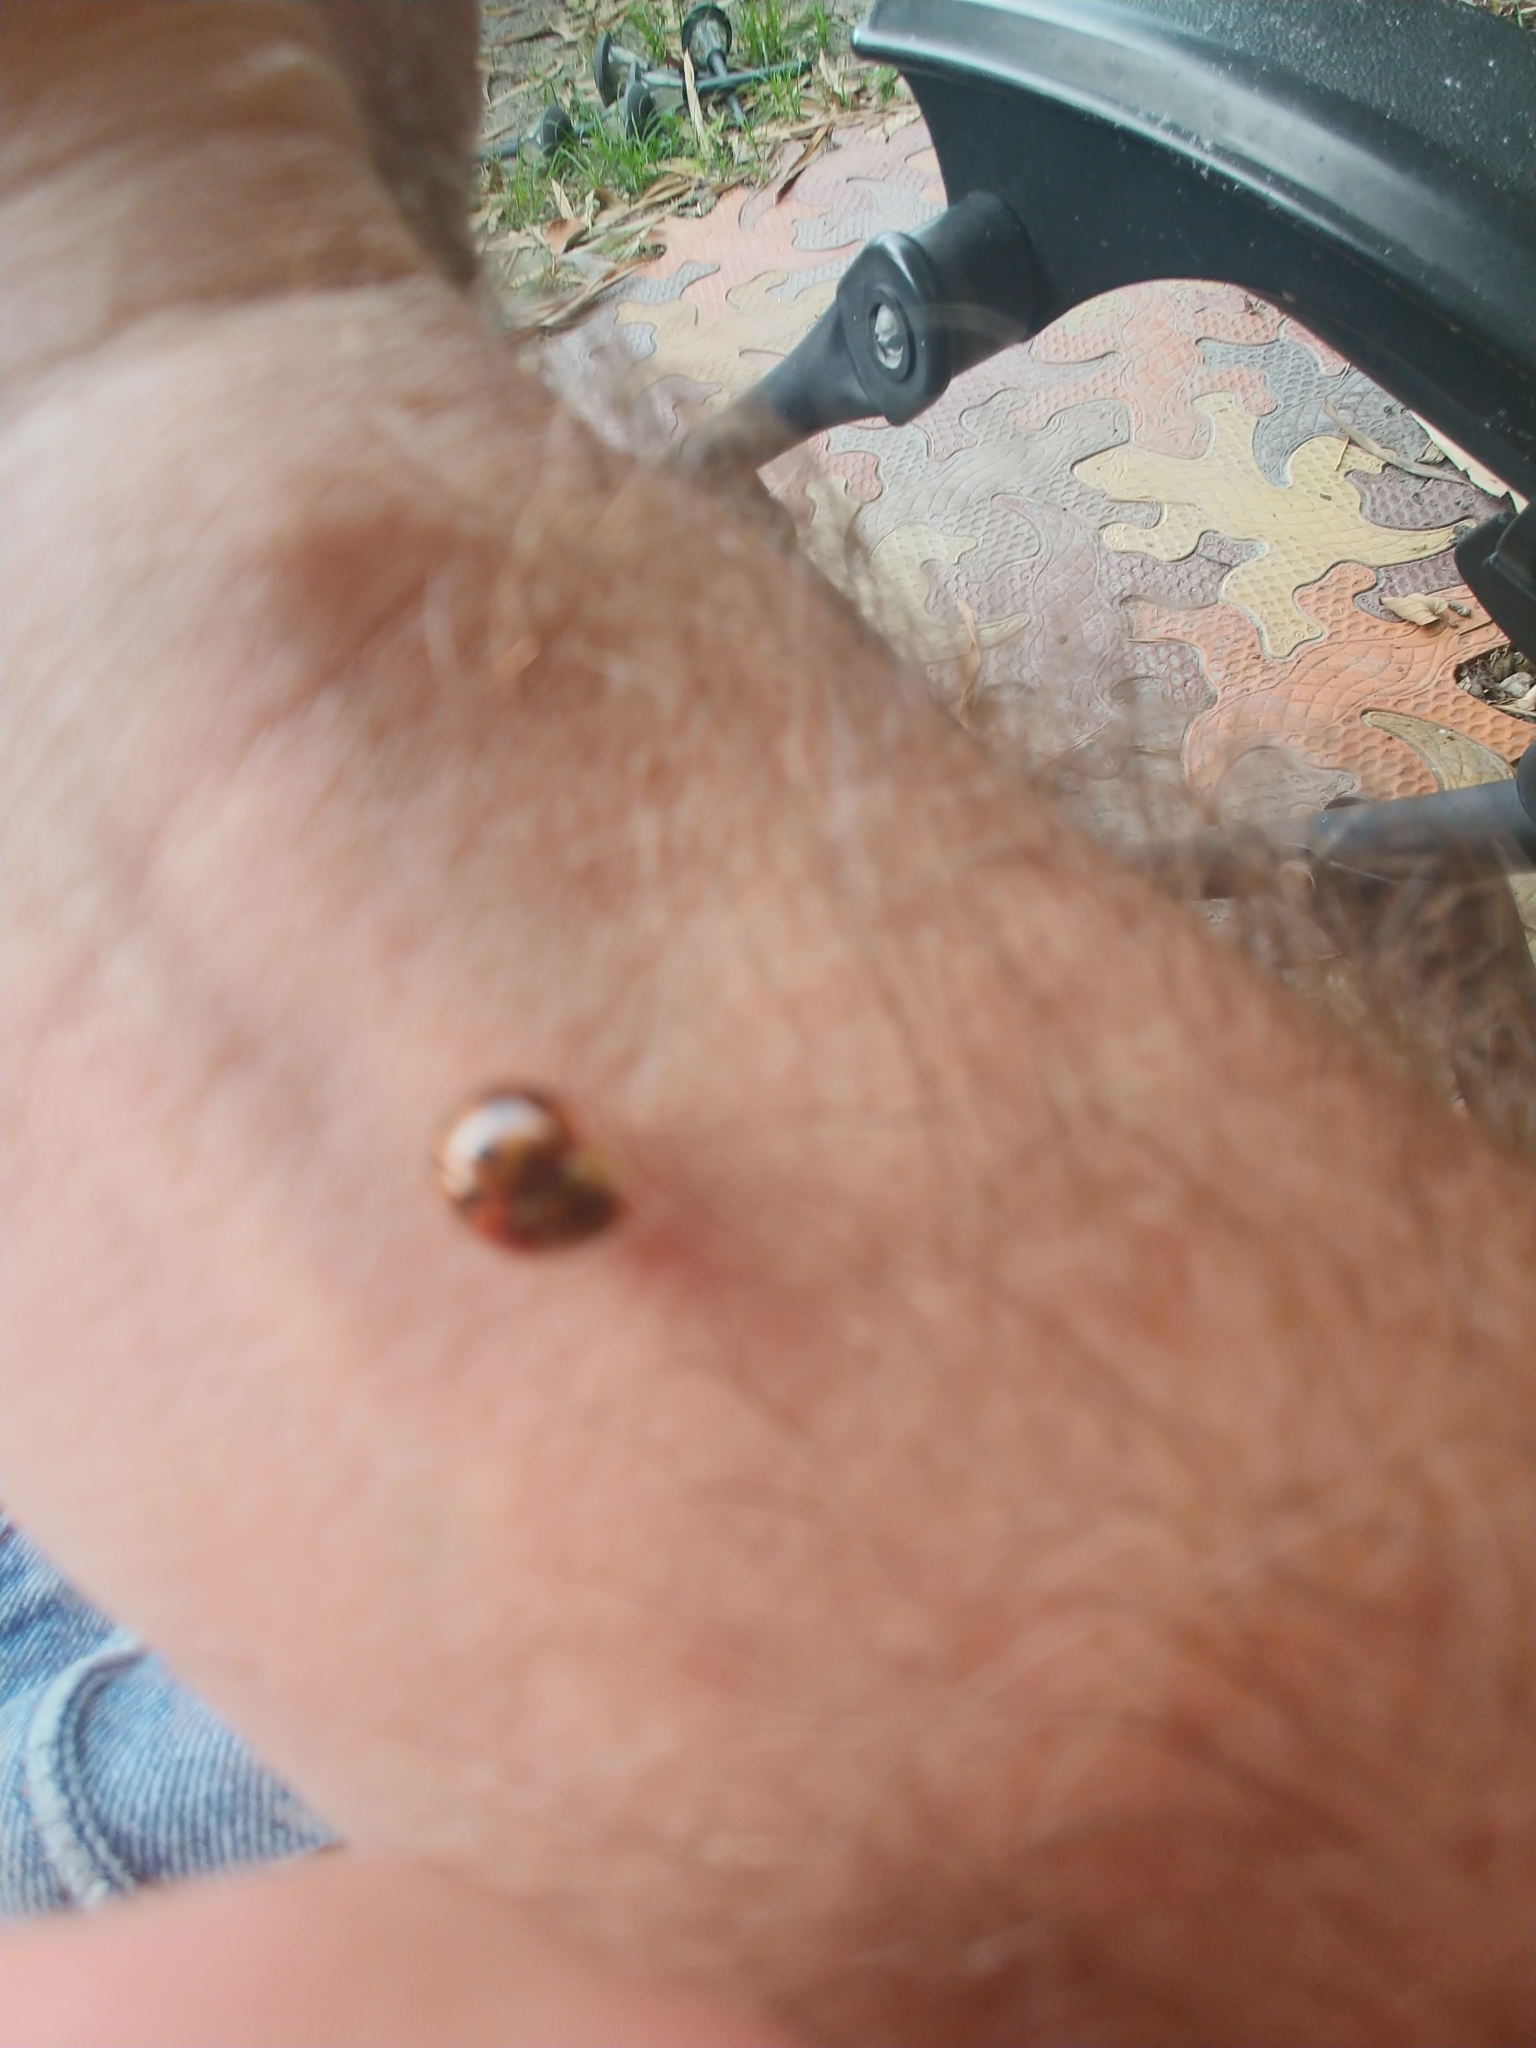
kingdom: Animalia
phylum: Arthropoda
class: Insecta
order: Coleoptera
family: Coccinellidae
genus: Harmonia
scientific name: Harmonia axyridis
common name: Harlequin ladybird
